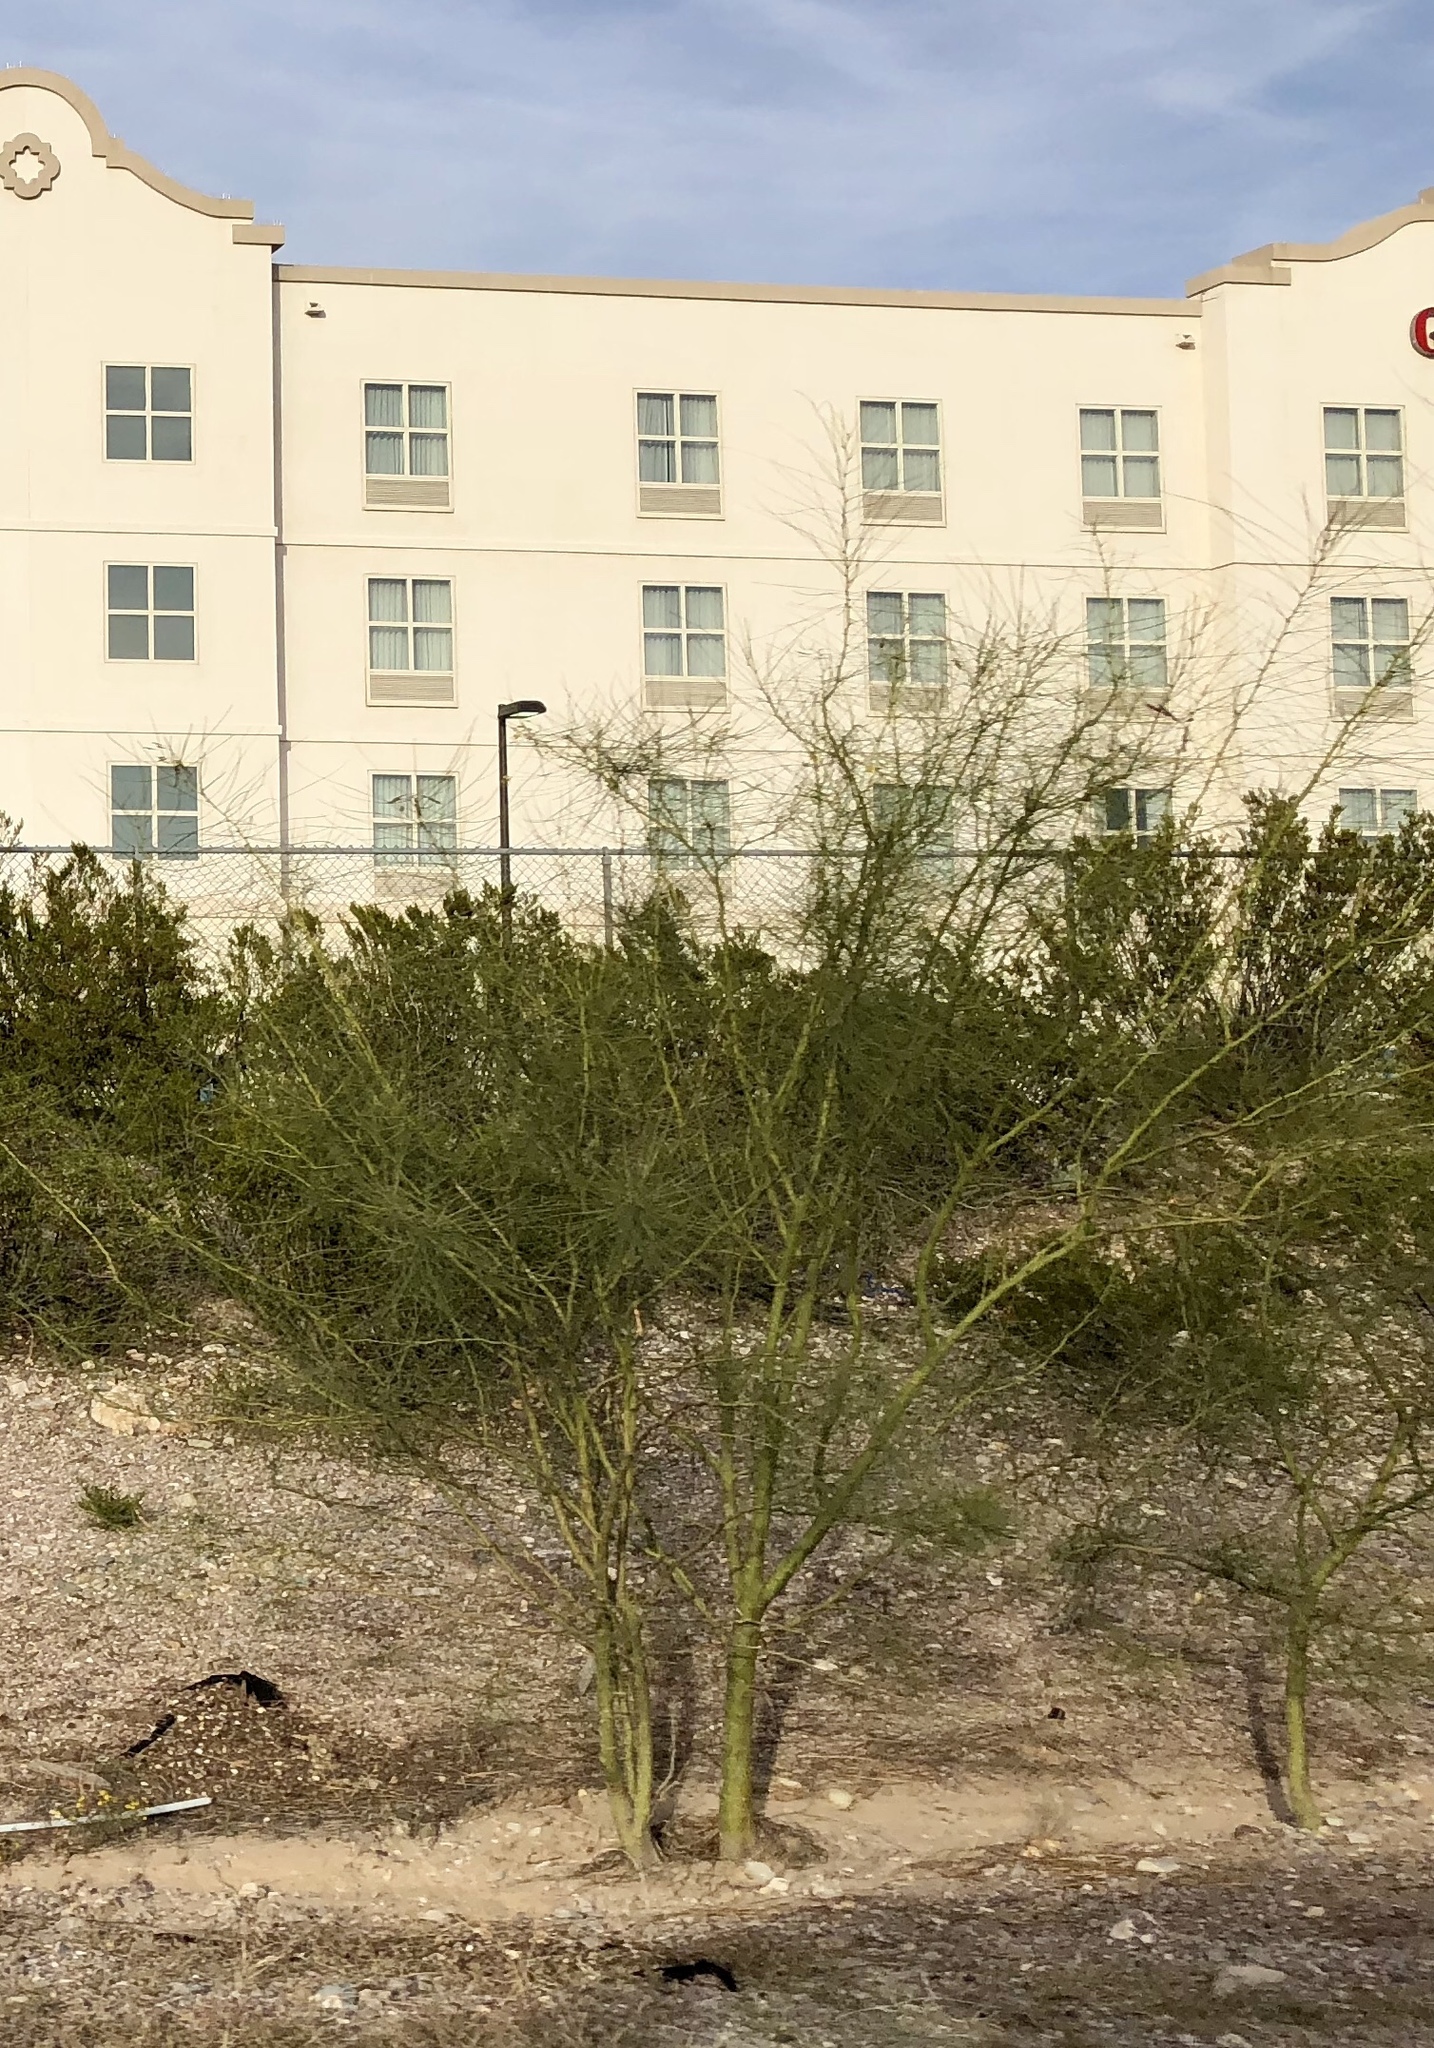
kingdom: Plantae
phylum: Tracheophyta
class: Magnoliopsida
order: Fabales
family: Fabaceae
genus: Parkinsonia
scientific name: Parkinsonia aculeata
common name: Jerusalem thorn
